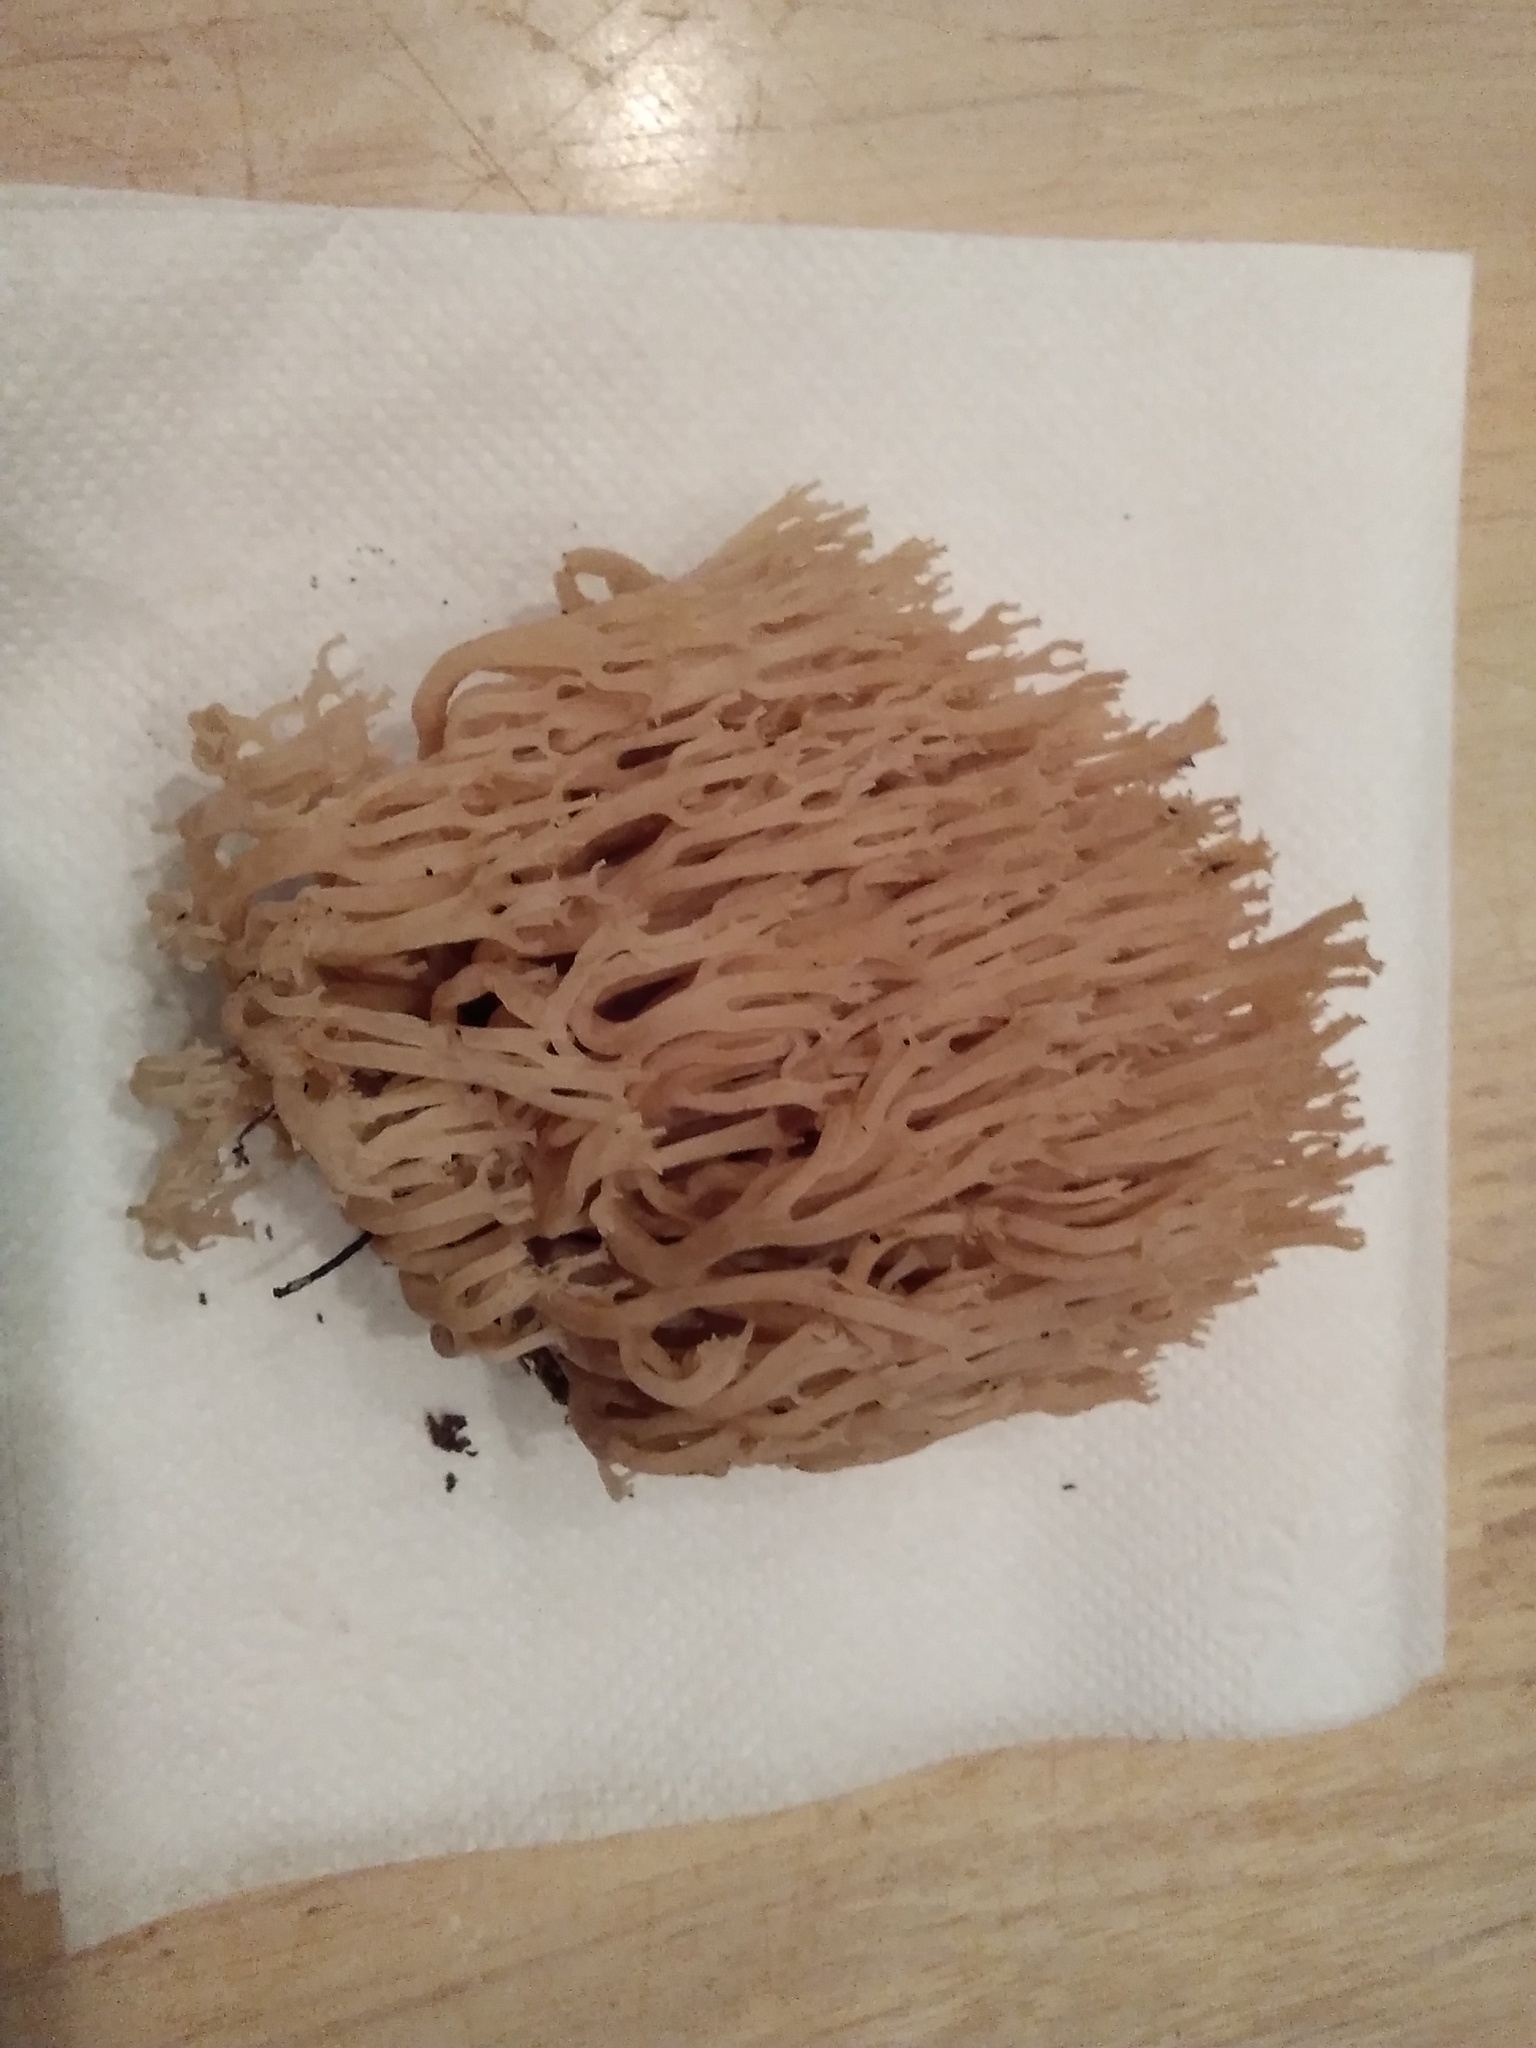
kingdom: Fungi
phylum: Basidiomycota
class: Agaricomycetes
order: Russulales
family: Auriscalpiaceae
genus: Artomyces
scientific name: Artomyces pyxidatus
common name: Crown-tipped coral fungus
